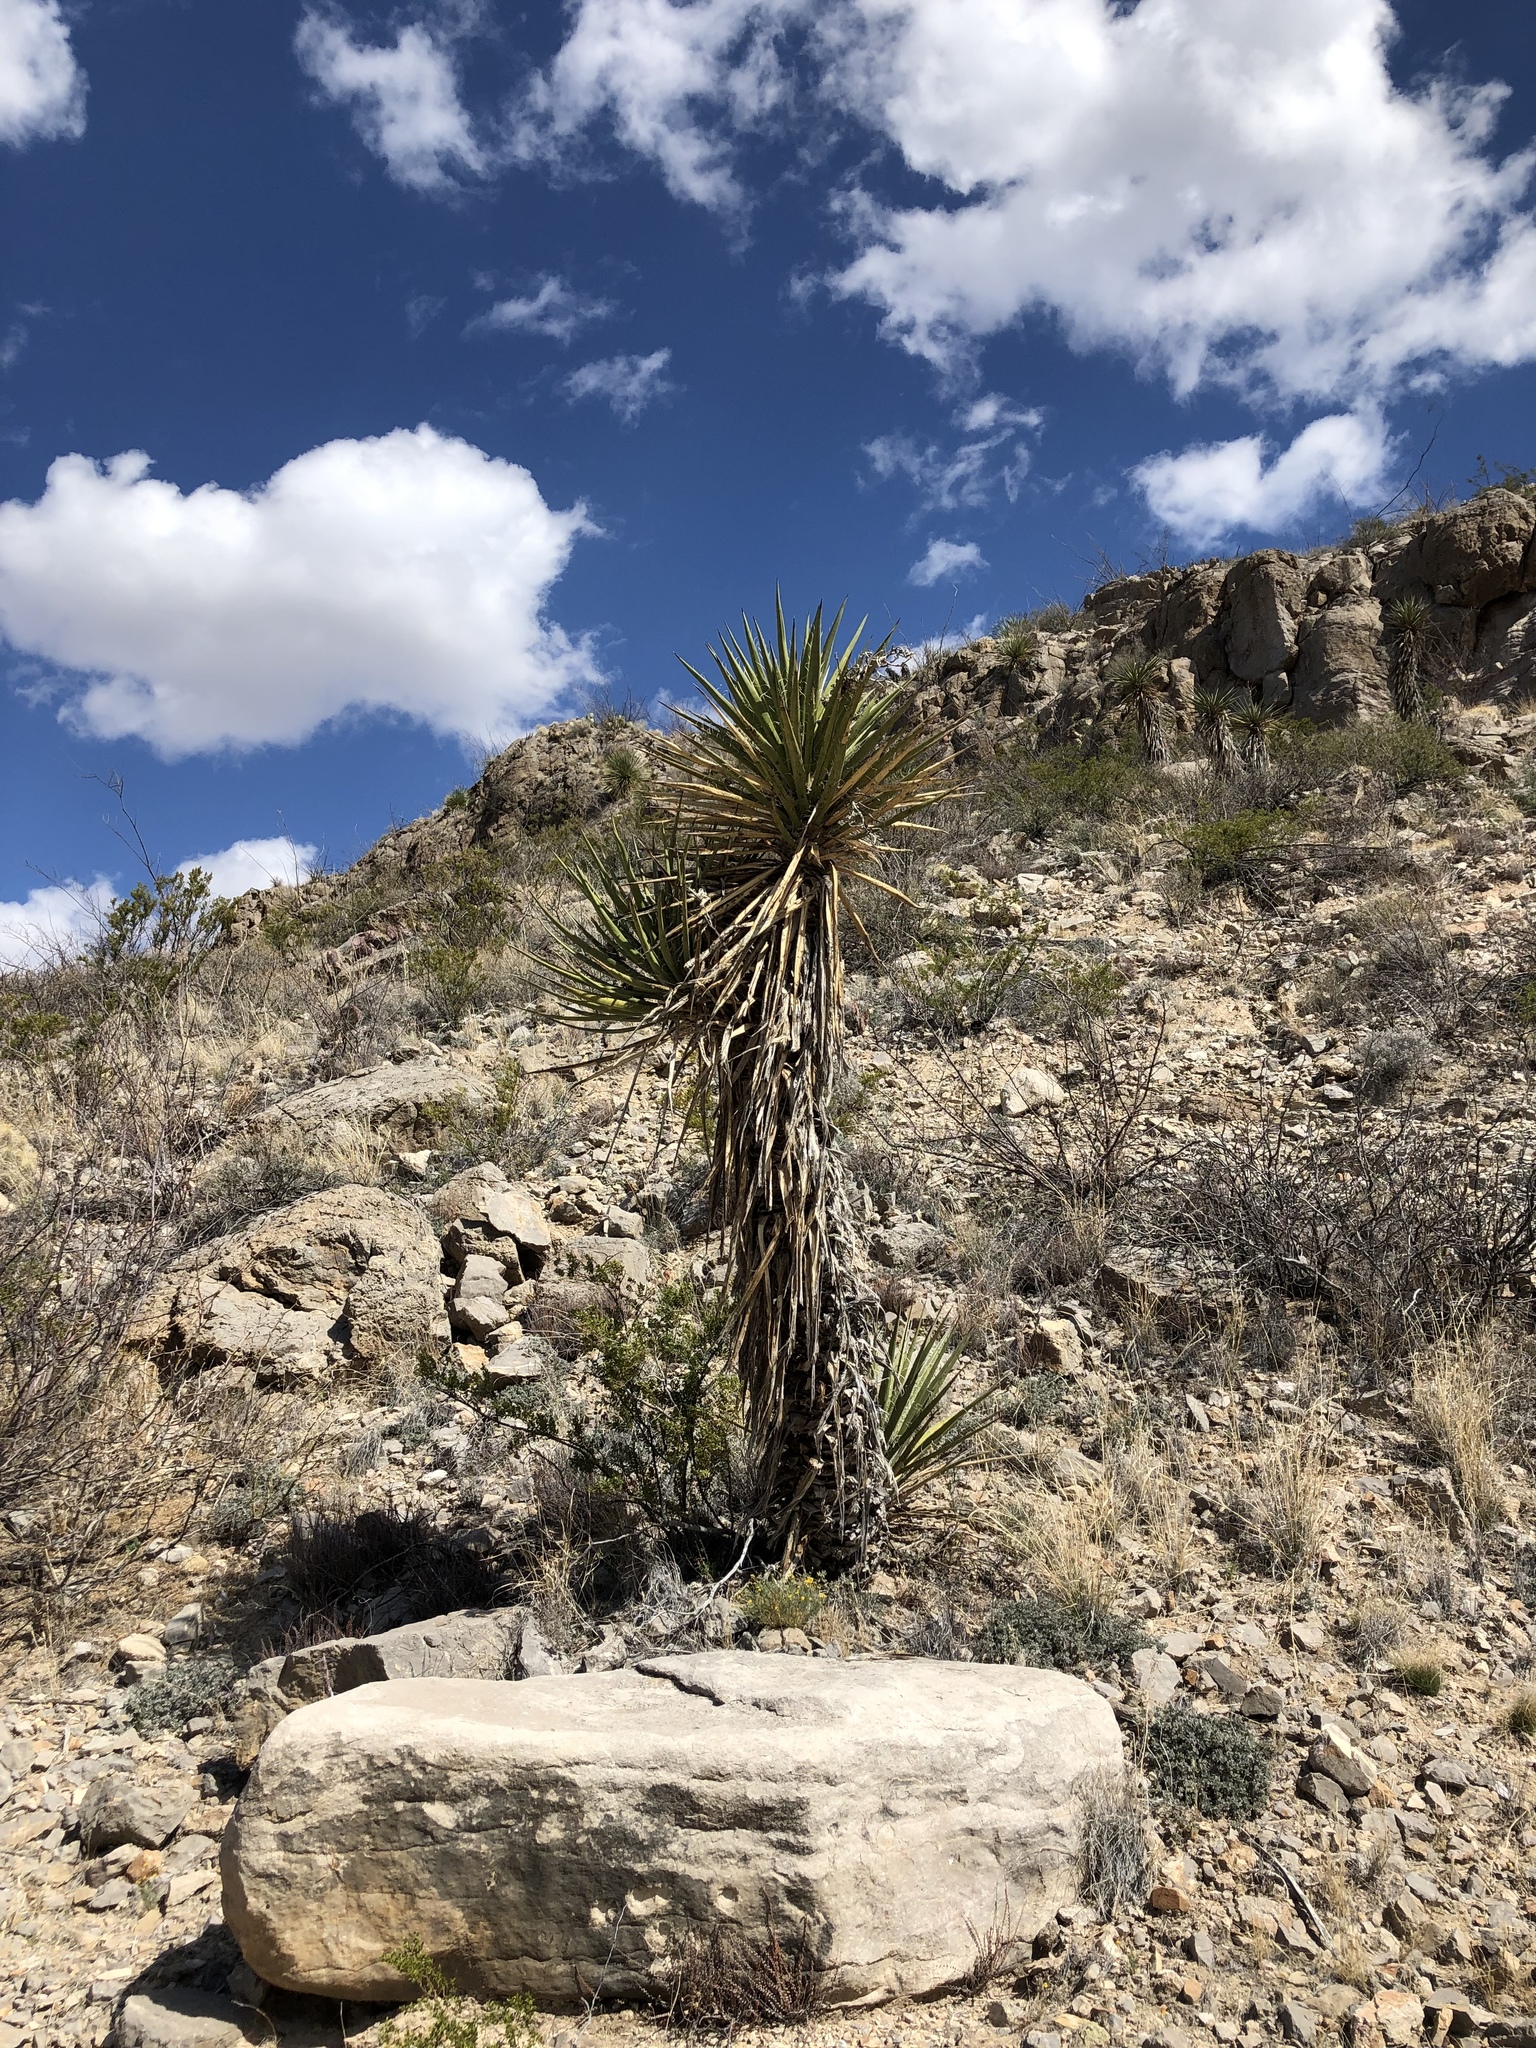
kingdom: Plantae
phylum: Tracheophyta
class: Liliopsida
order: Asparagales
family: Asparagaceae
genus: Yucca
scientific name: Yucca treculiana
